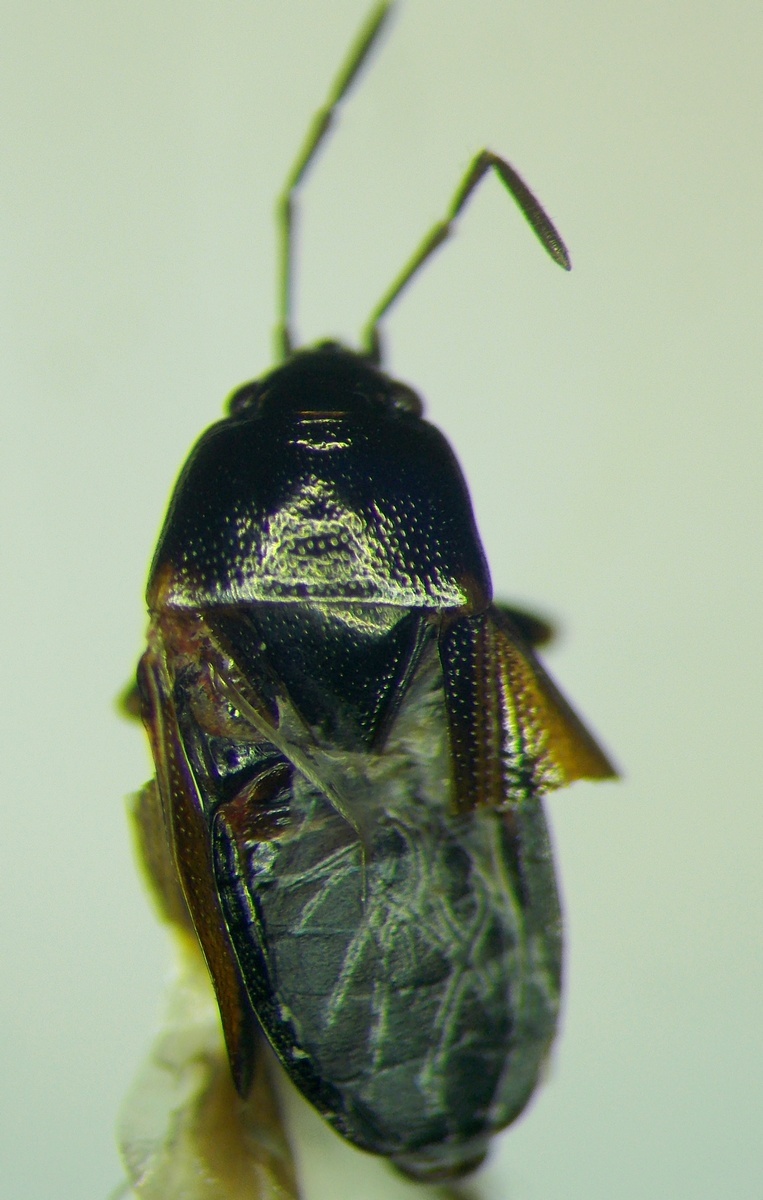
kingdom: Animalia
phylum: Arthropoda
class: Insecta
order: Hemiptera
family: Rhyparochromidae
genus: Lamprodema
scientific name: Lamprodema maura
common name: Seed bug
